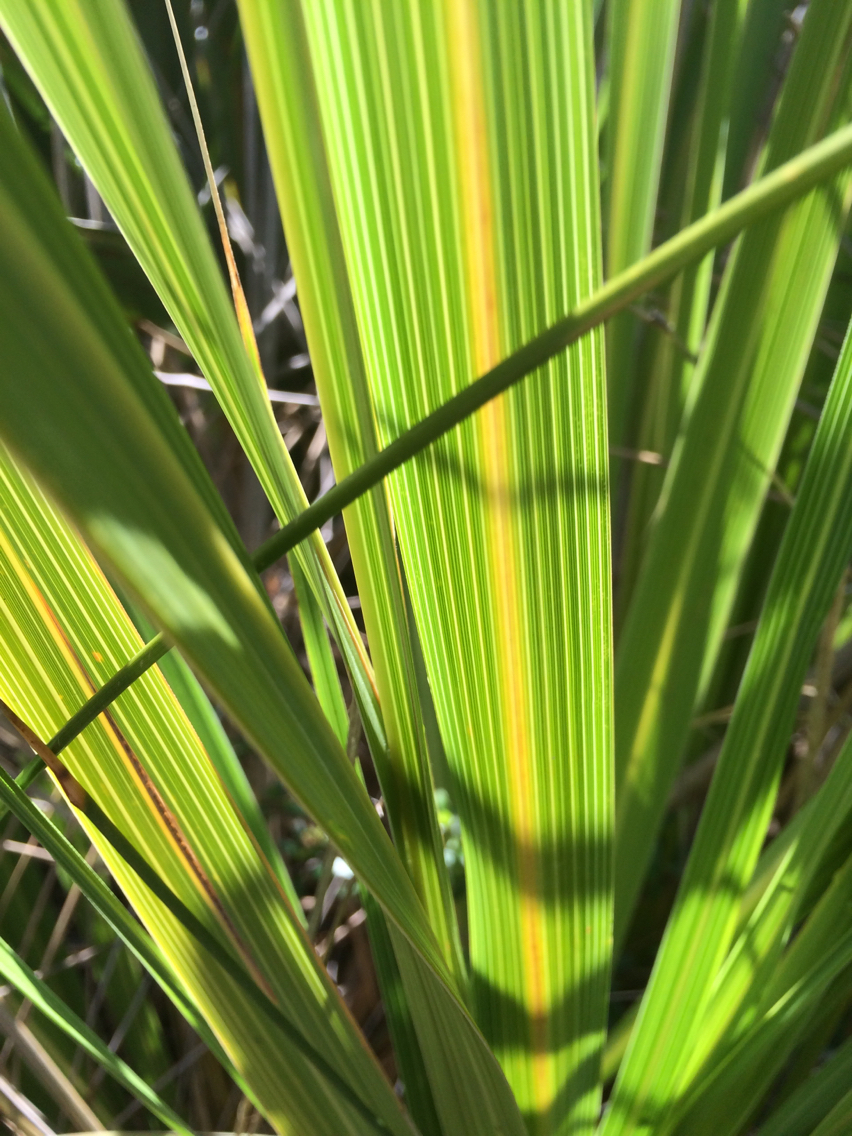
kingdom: Plantae
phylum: Tracheophyta
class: Liliopsida
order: Poales
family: Poaceae
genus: Austroderia
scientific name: Austroderia toetoe
